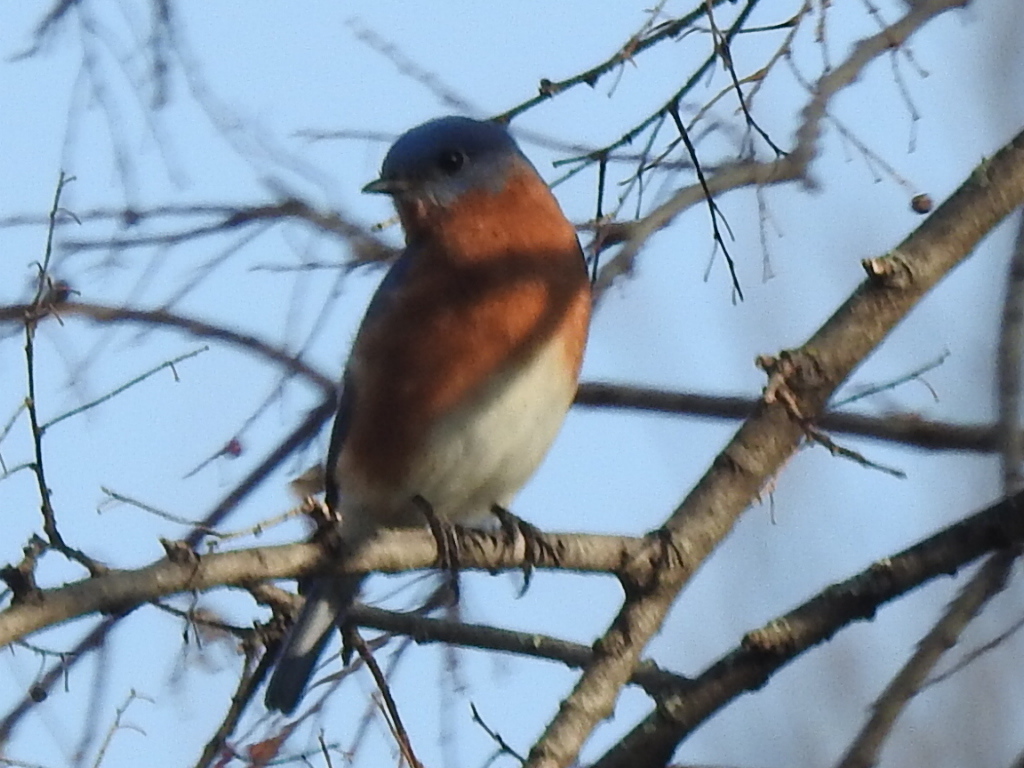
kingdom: Animalia
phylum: Chordata
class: Aves
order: Passeriformes
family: Turdidae
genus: Sialia
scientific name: Sialia sialis
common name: Eastern bluebird
